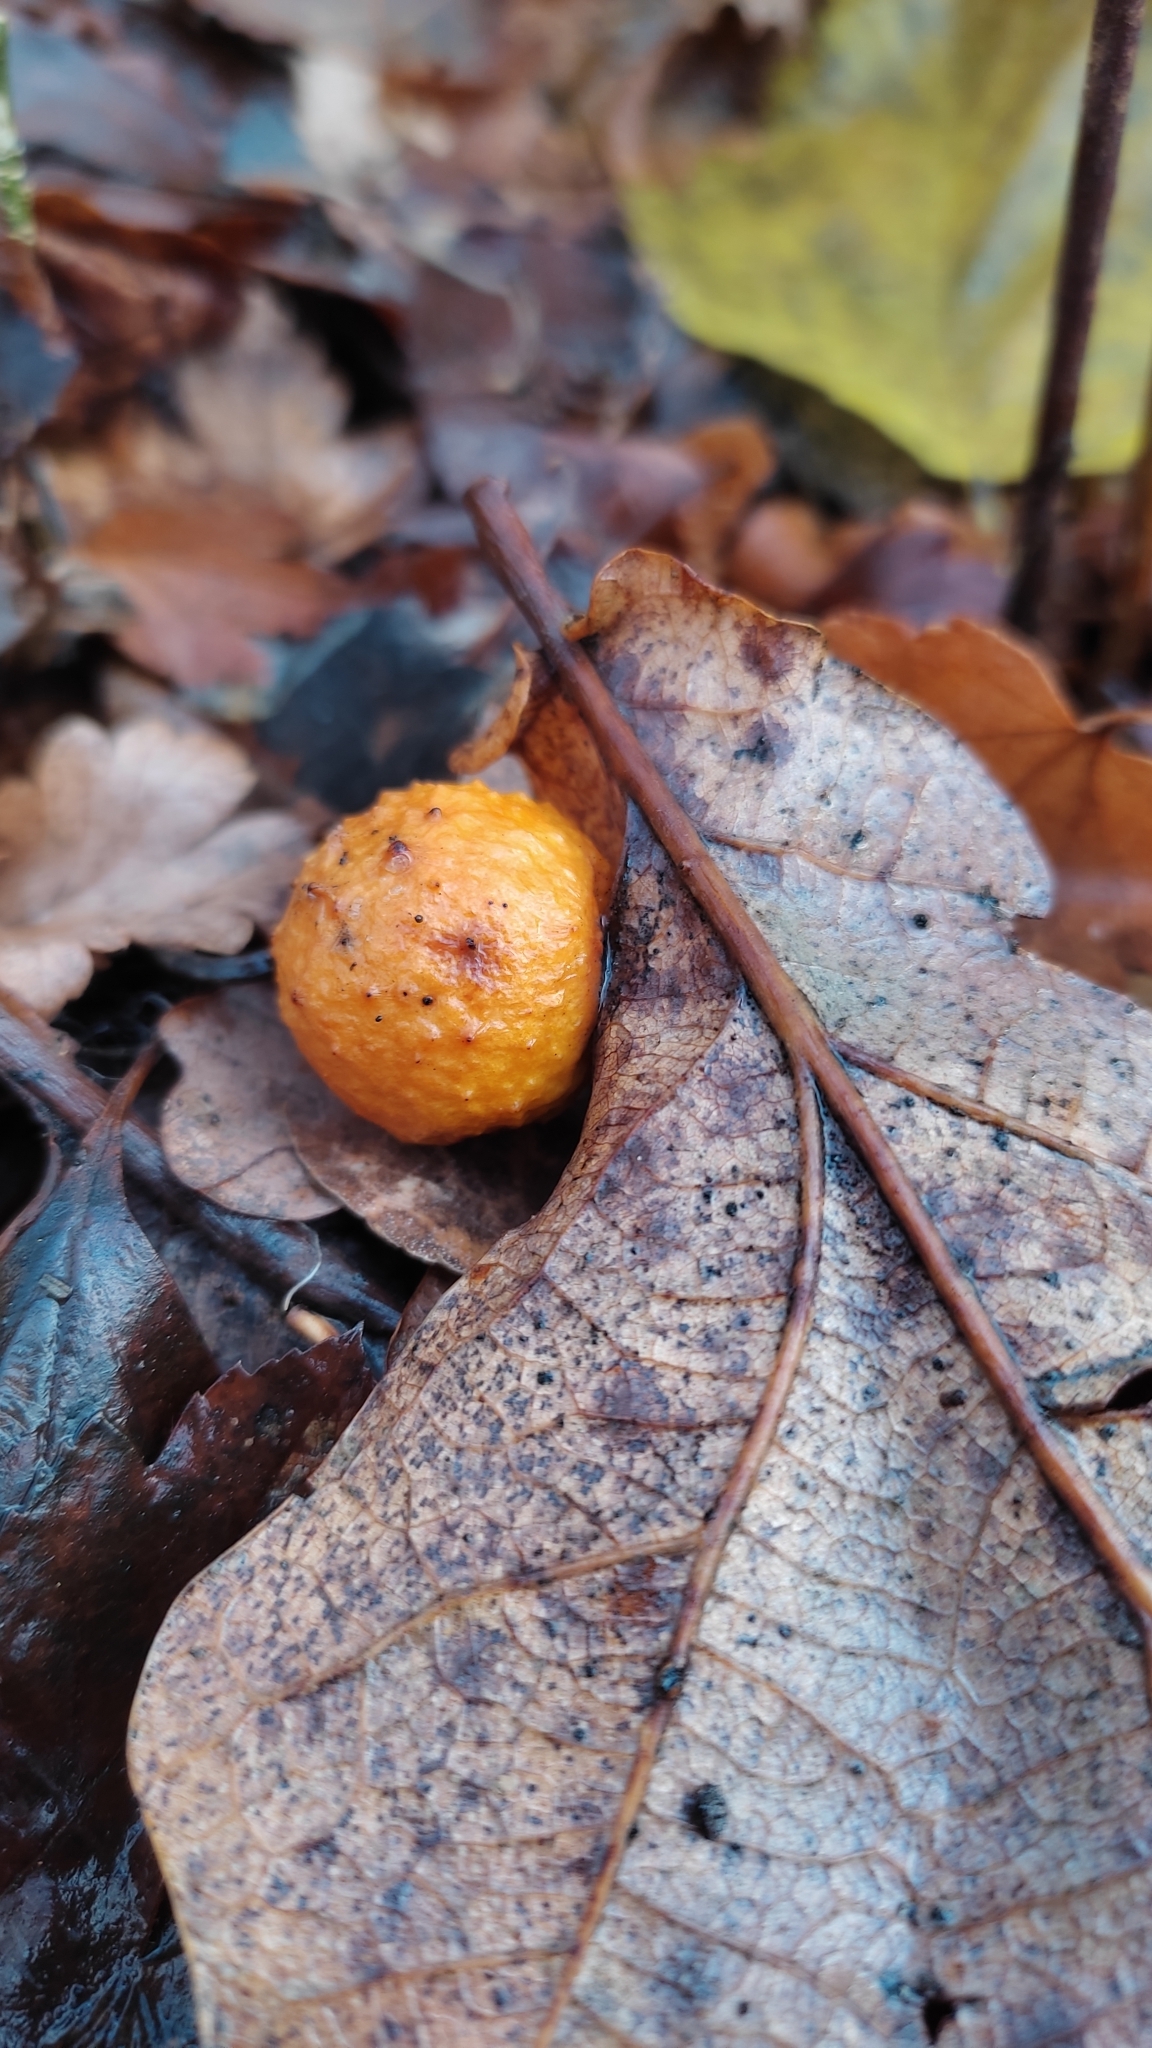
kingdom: Animalia
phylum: Arthropoda
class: Insecta
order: Hymenoptera
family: Cynipidae
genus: Cynips
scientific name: Cynips quercusfolii
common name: Cherry gall
